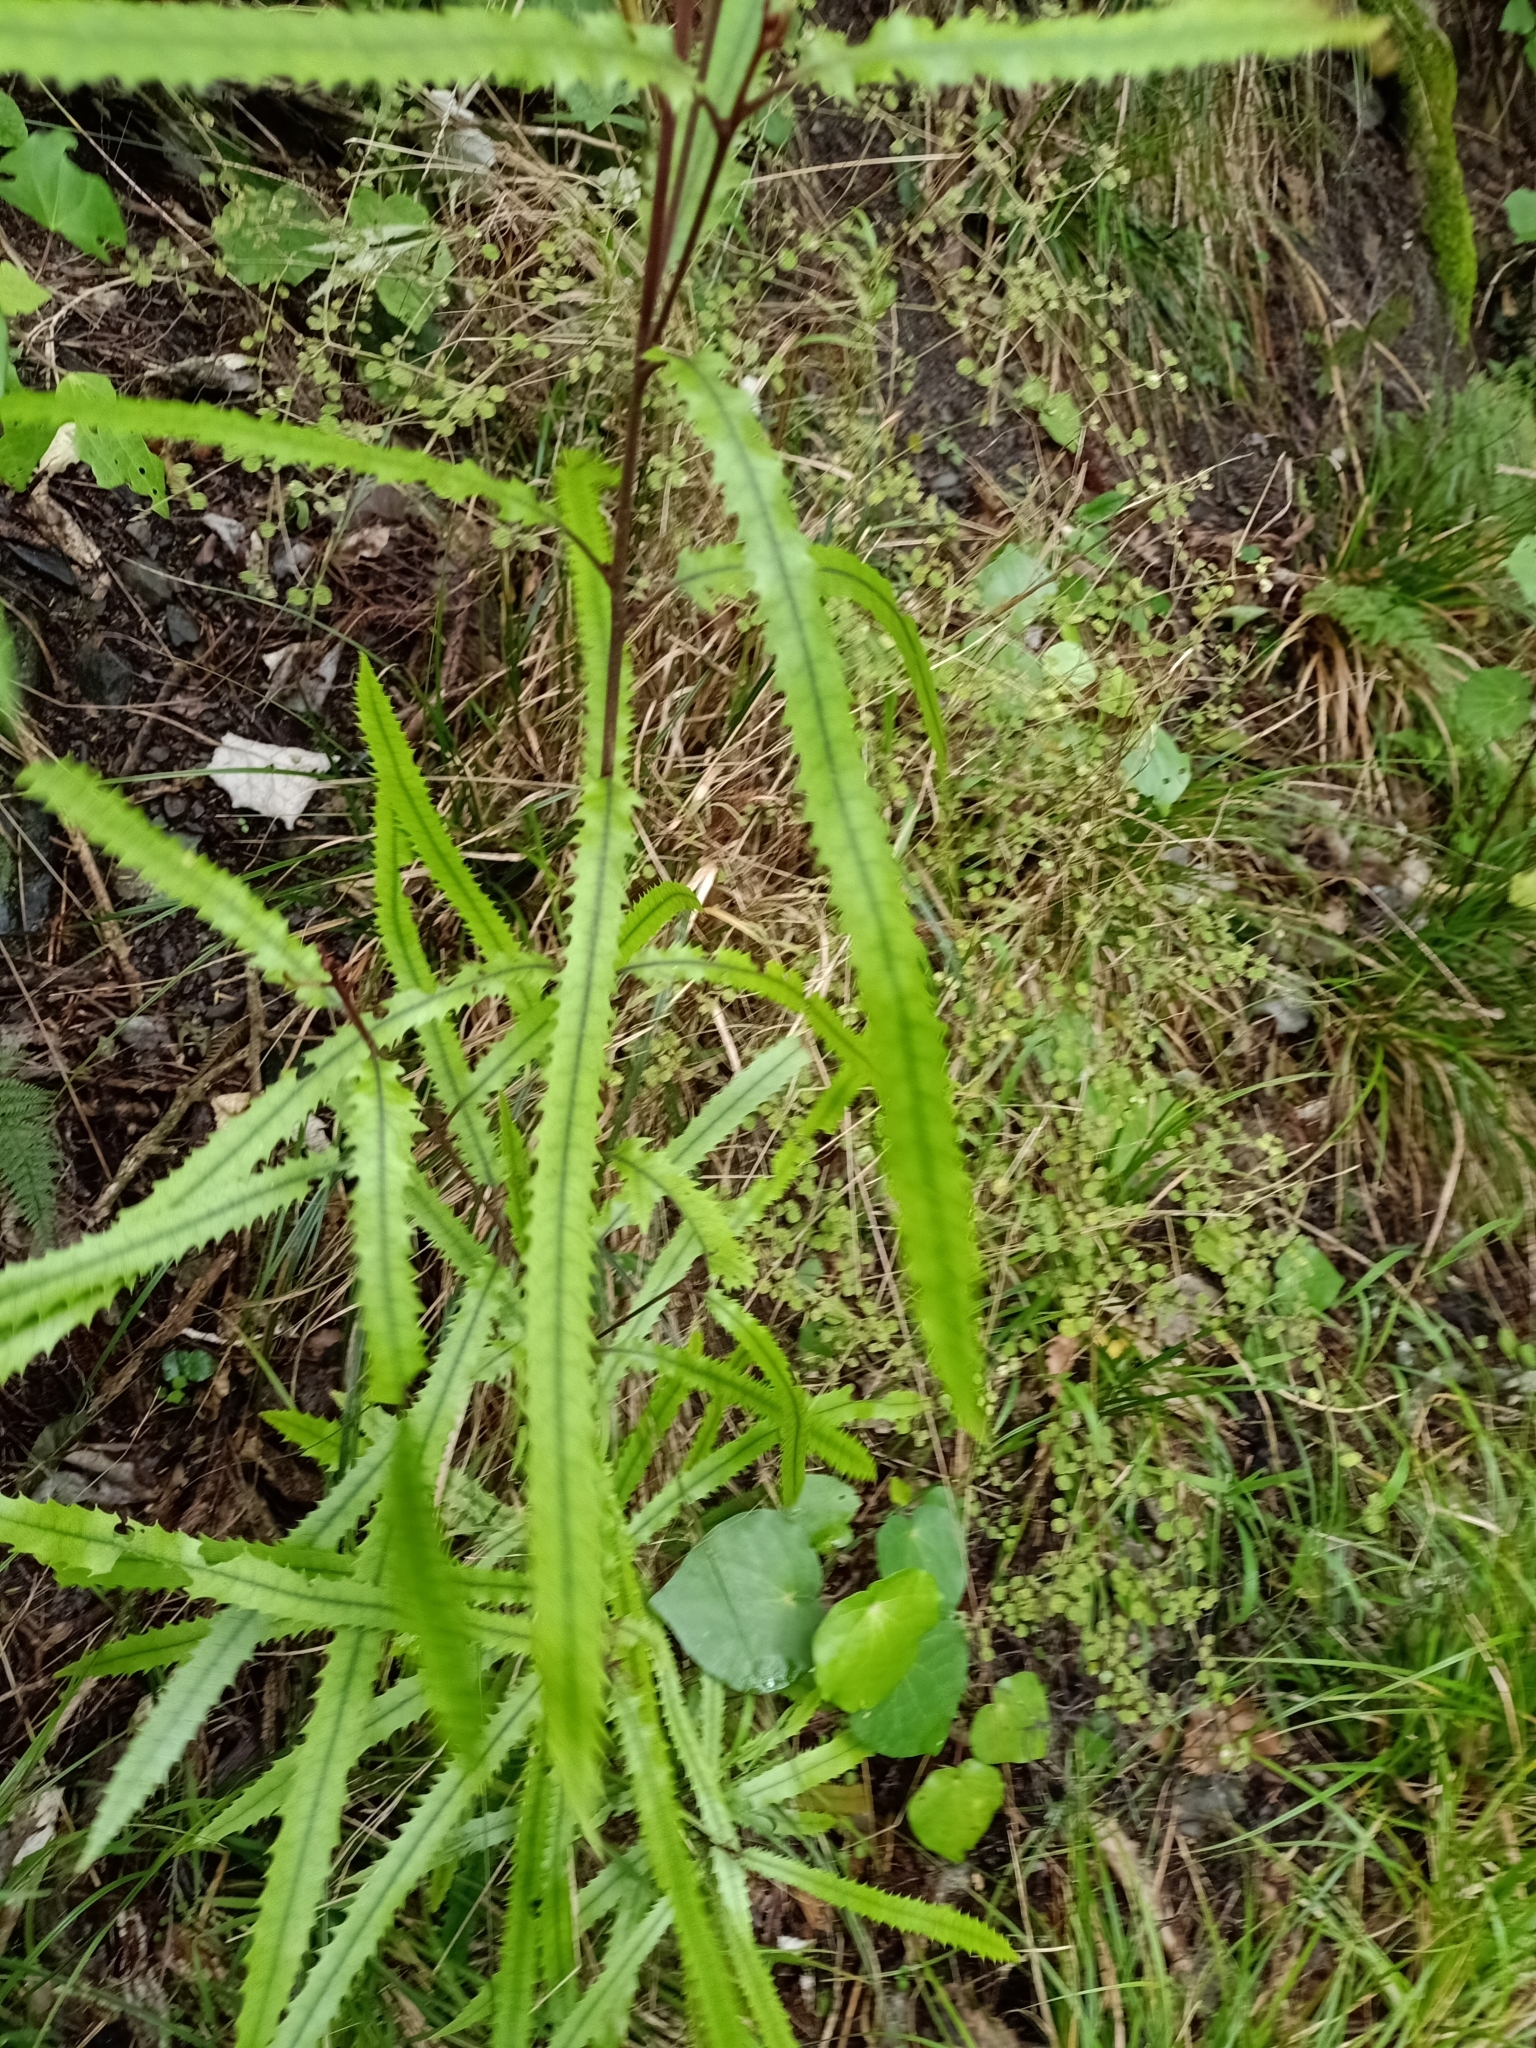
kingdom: Plantae
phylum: Tracheophyta
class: Magnoliopsida
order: Proteales
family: Proteaceae
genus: Knightia
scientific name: Knightia excelsa
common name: New zealand-honeysuckle
